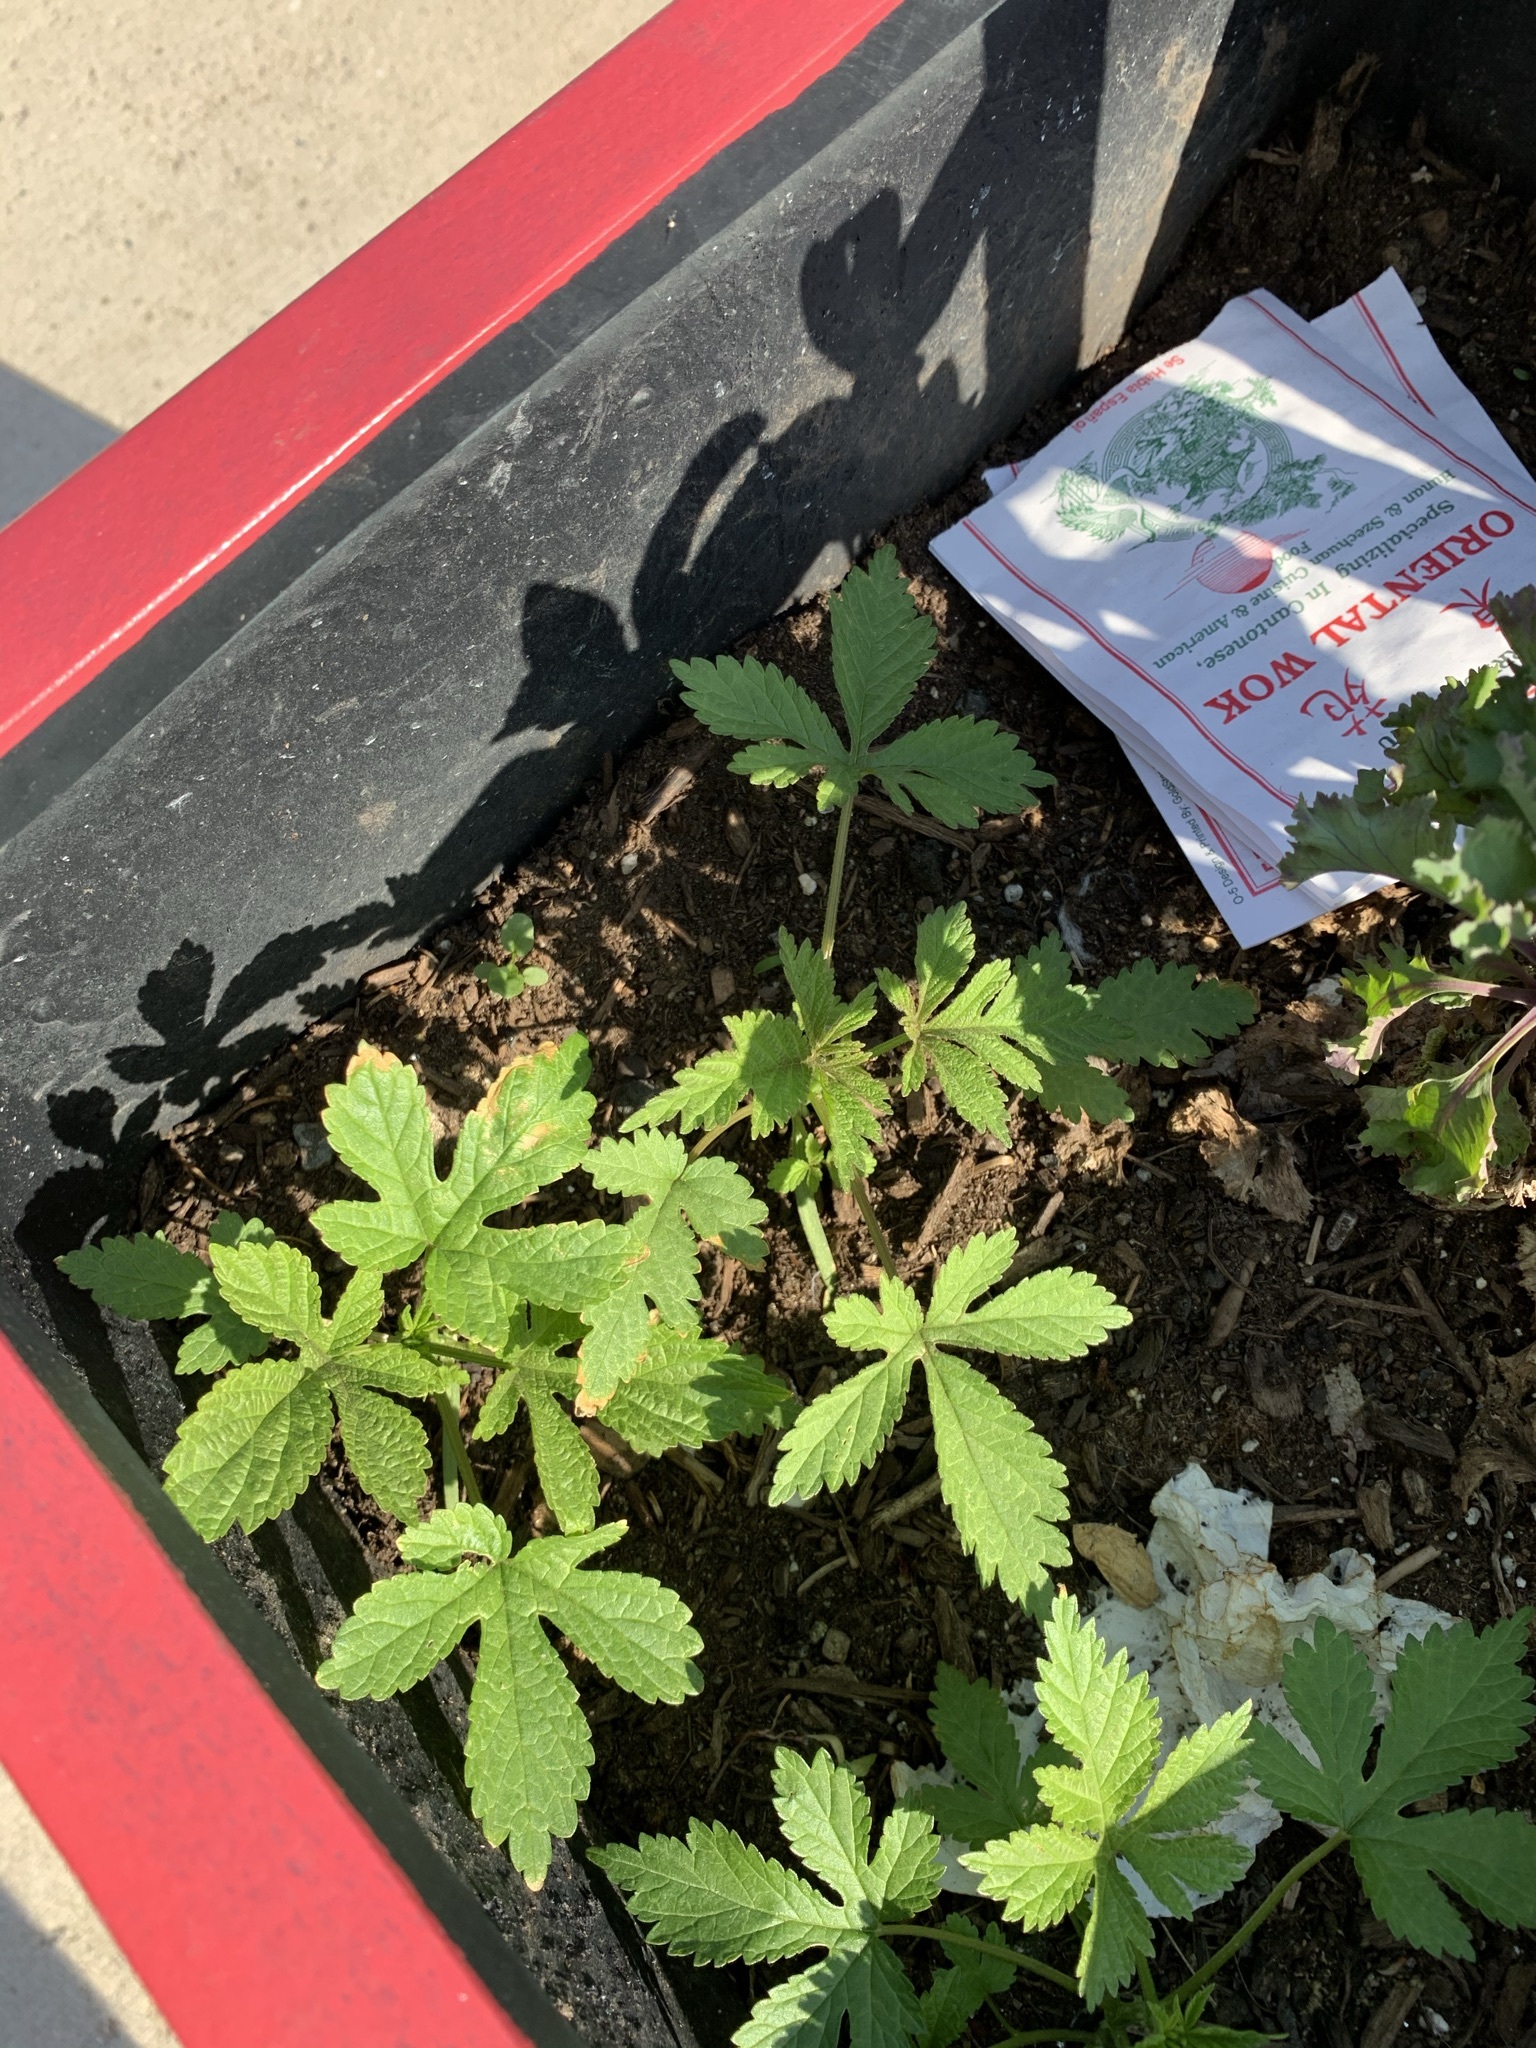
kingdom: Plantae
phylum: Tracheophyta
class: Magnoliopsida
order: Rosales
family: Cannabaceae
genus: Humulus
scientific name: Humulus scandens
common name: Japanese hop
